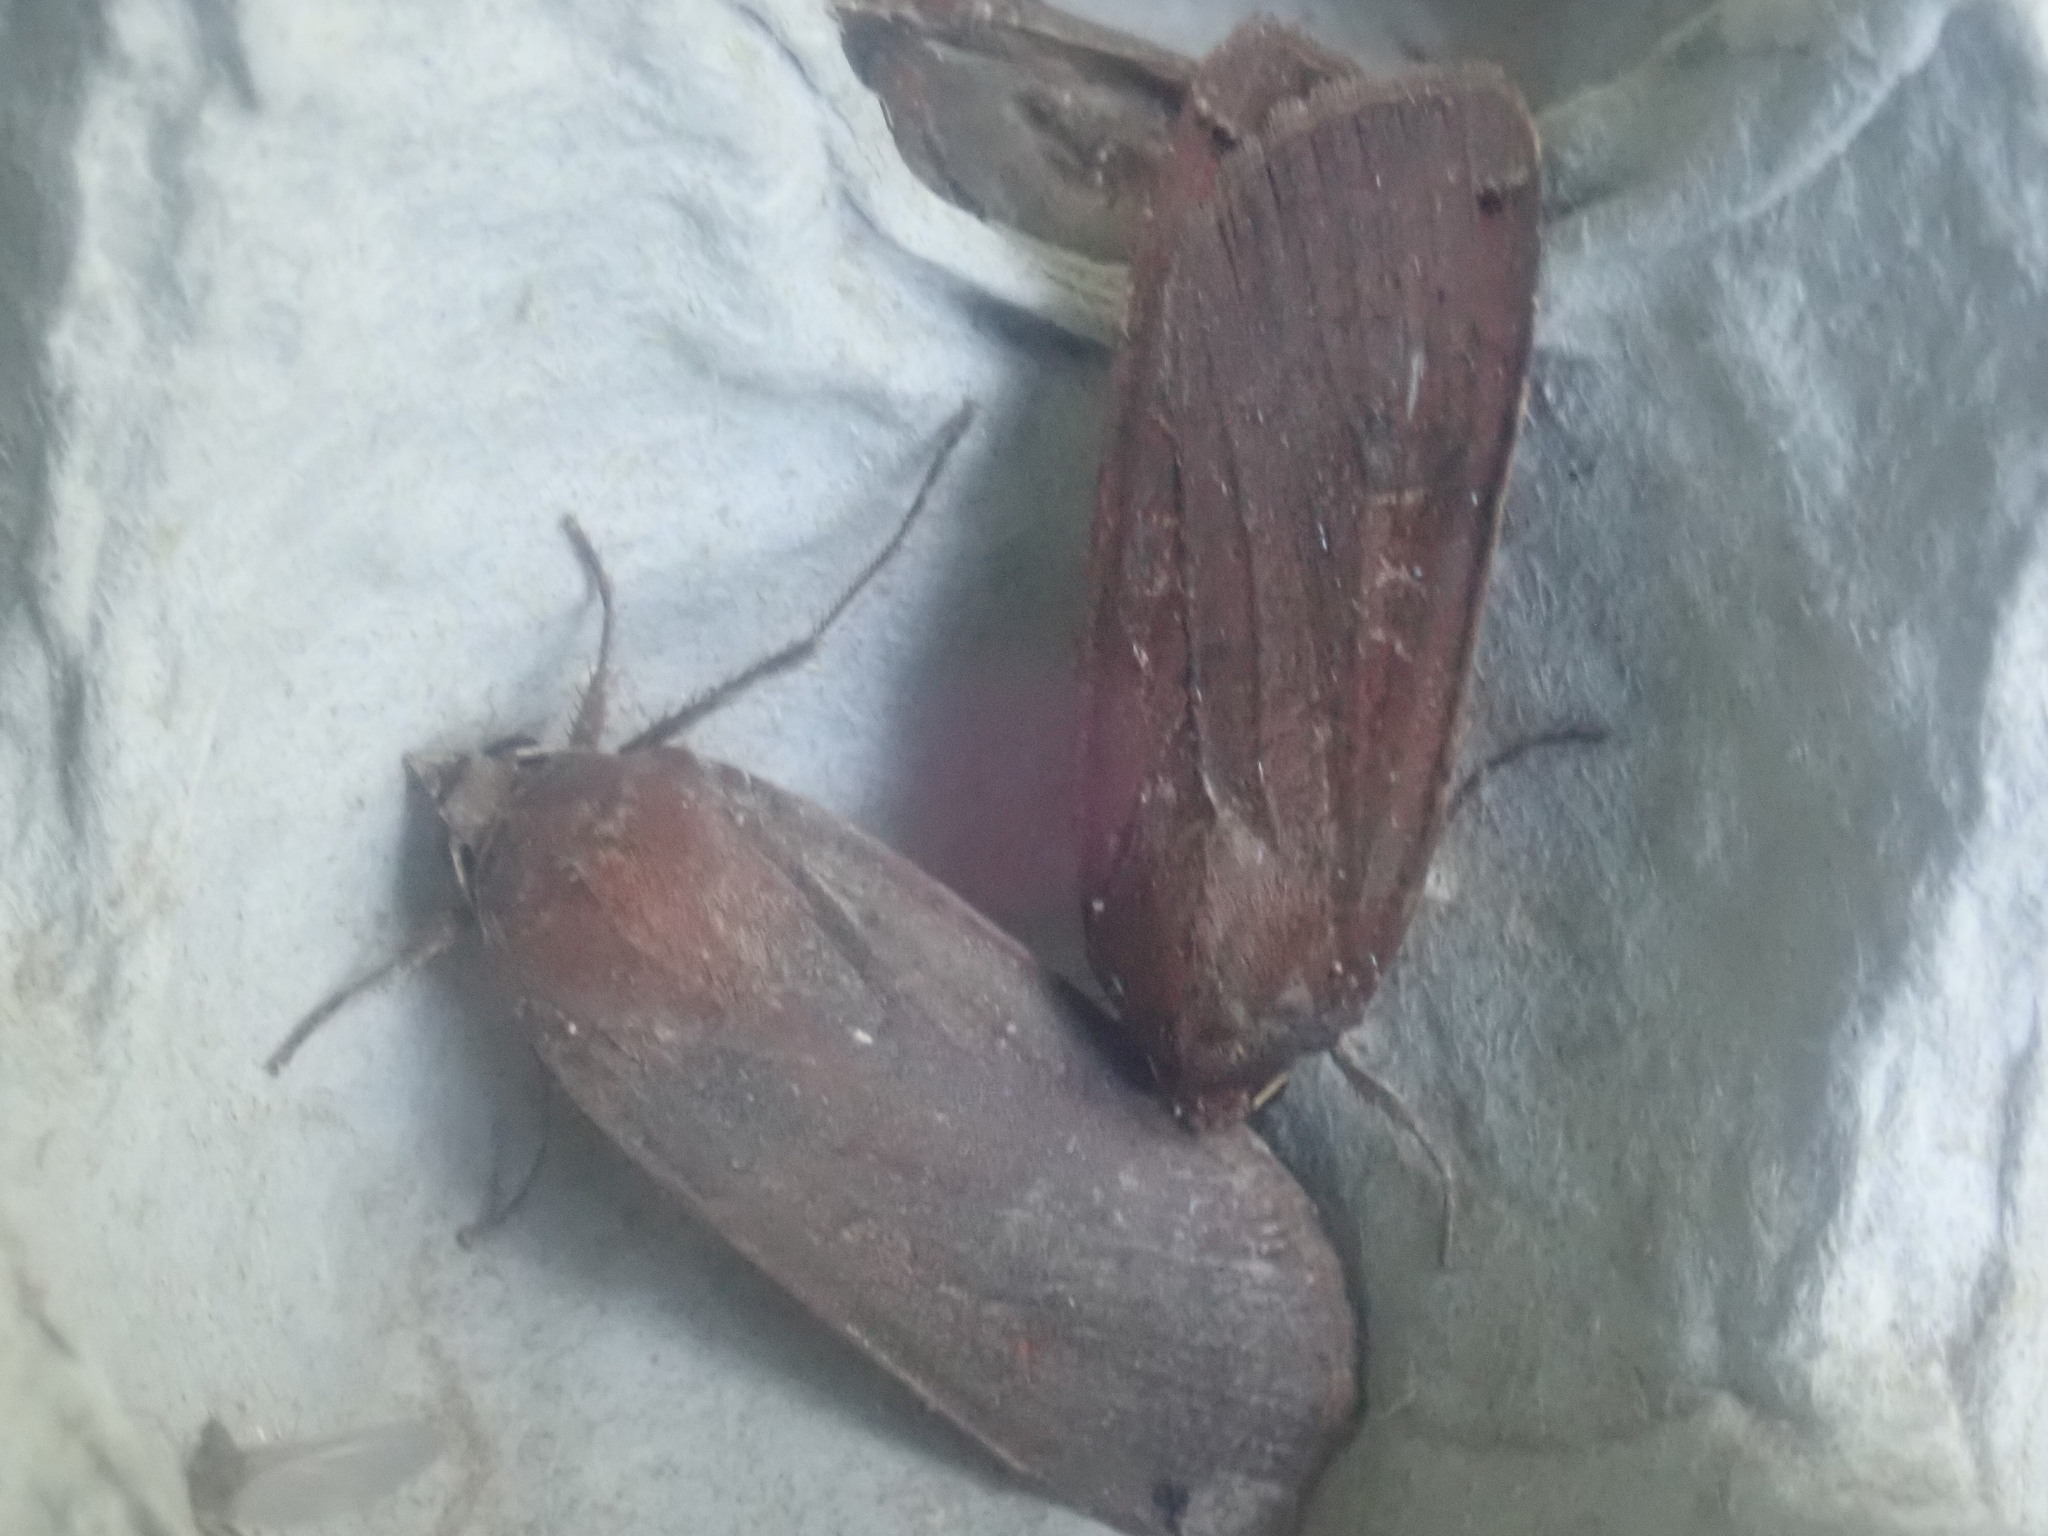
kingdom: Animalia
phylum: Arthropoda
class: Insecta
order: Lepidoptera
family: Noctuidae
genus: Noctua
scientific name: Noctua pronuba
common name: Large yellow underwing
